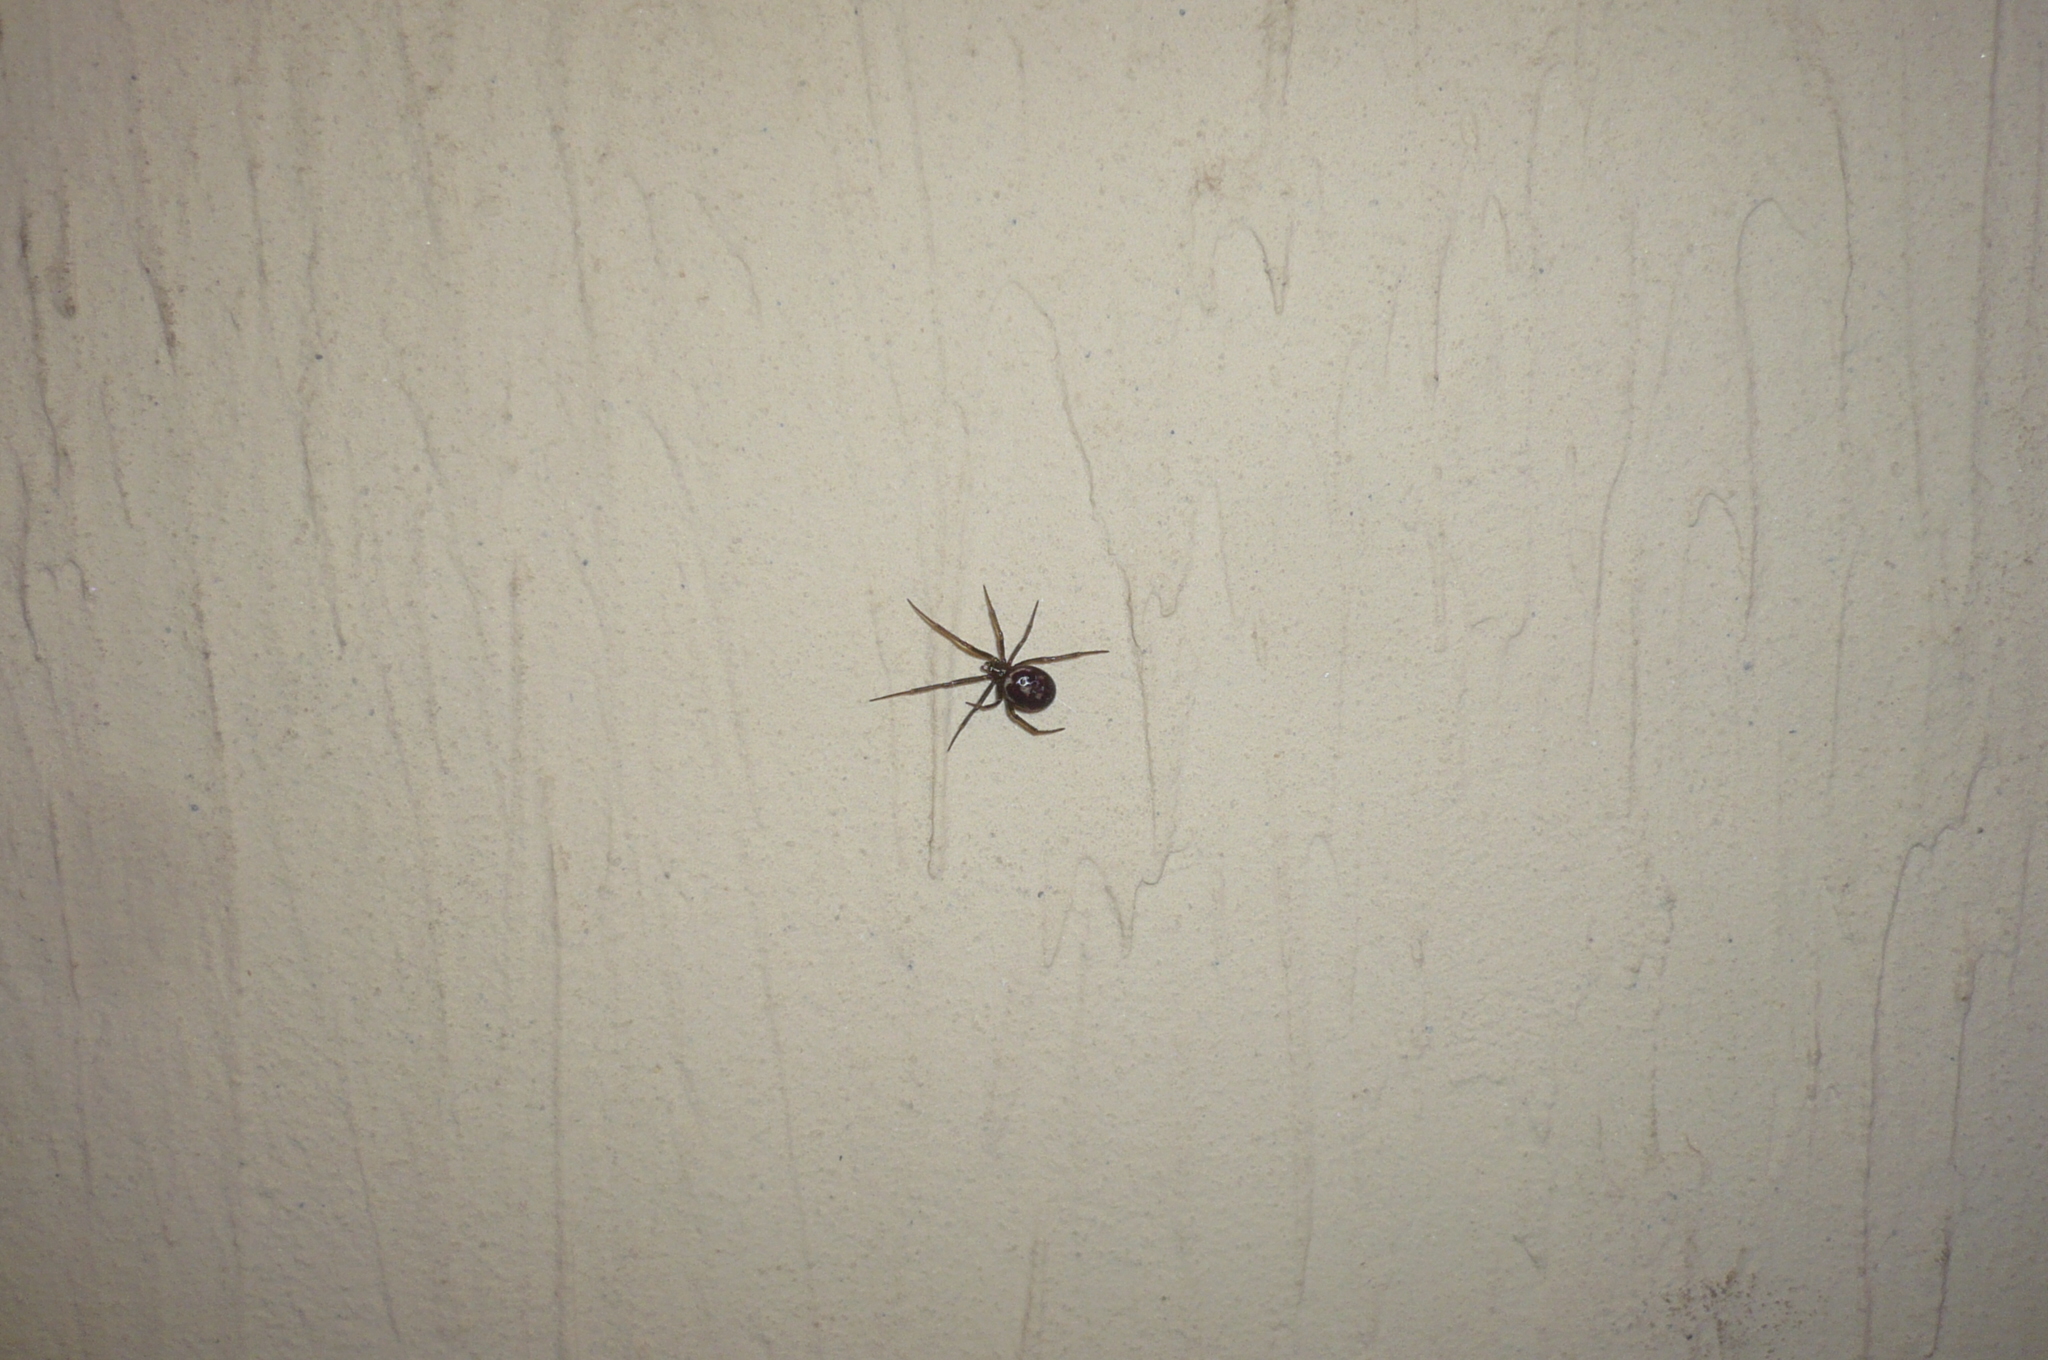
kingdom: Animalia
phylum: Arthropoda
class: Arachnida
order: Araneae
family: Theridiidae
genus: Steatoda
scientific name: Steatoda grossa
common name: False black widow
